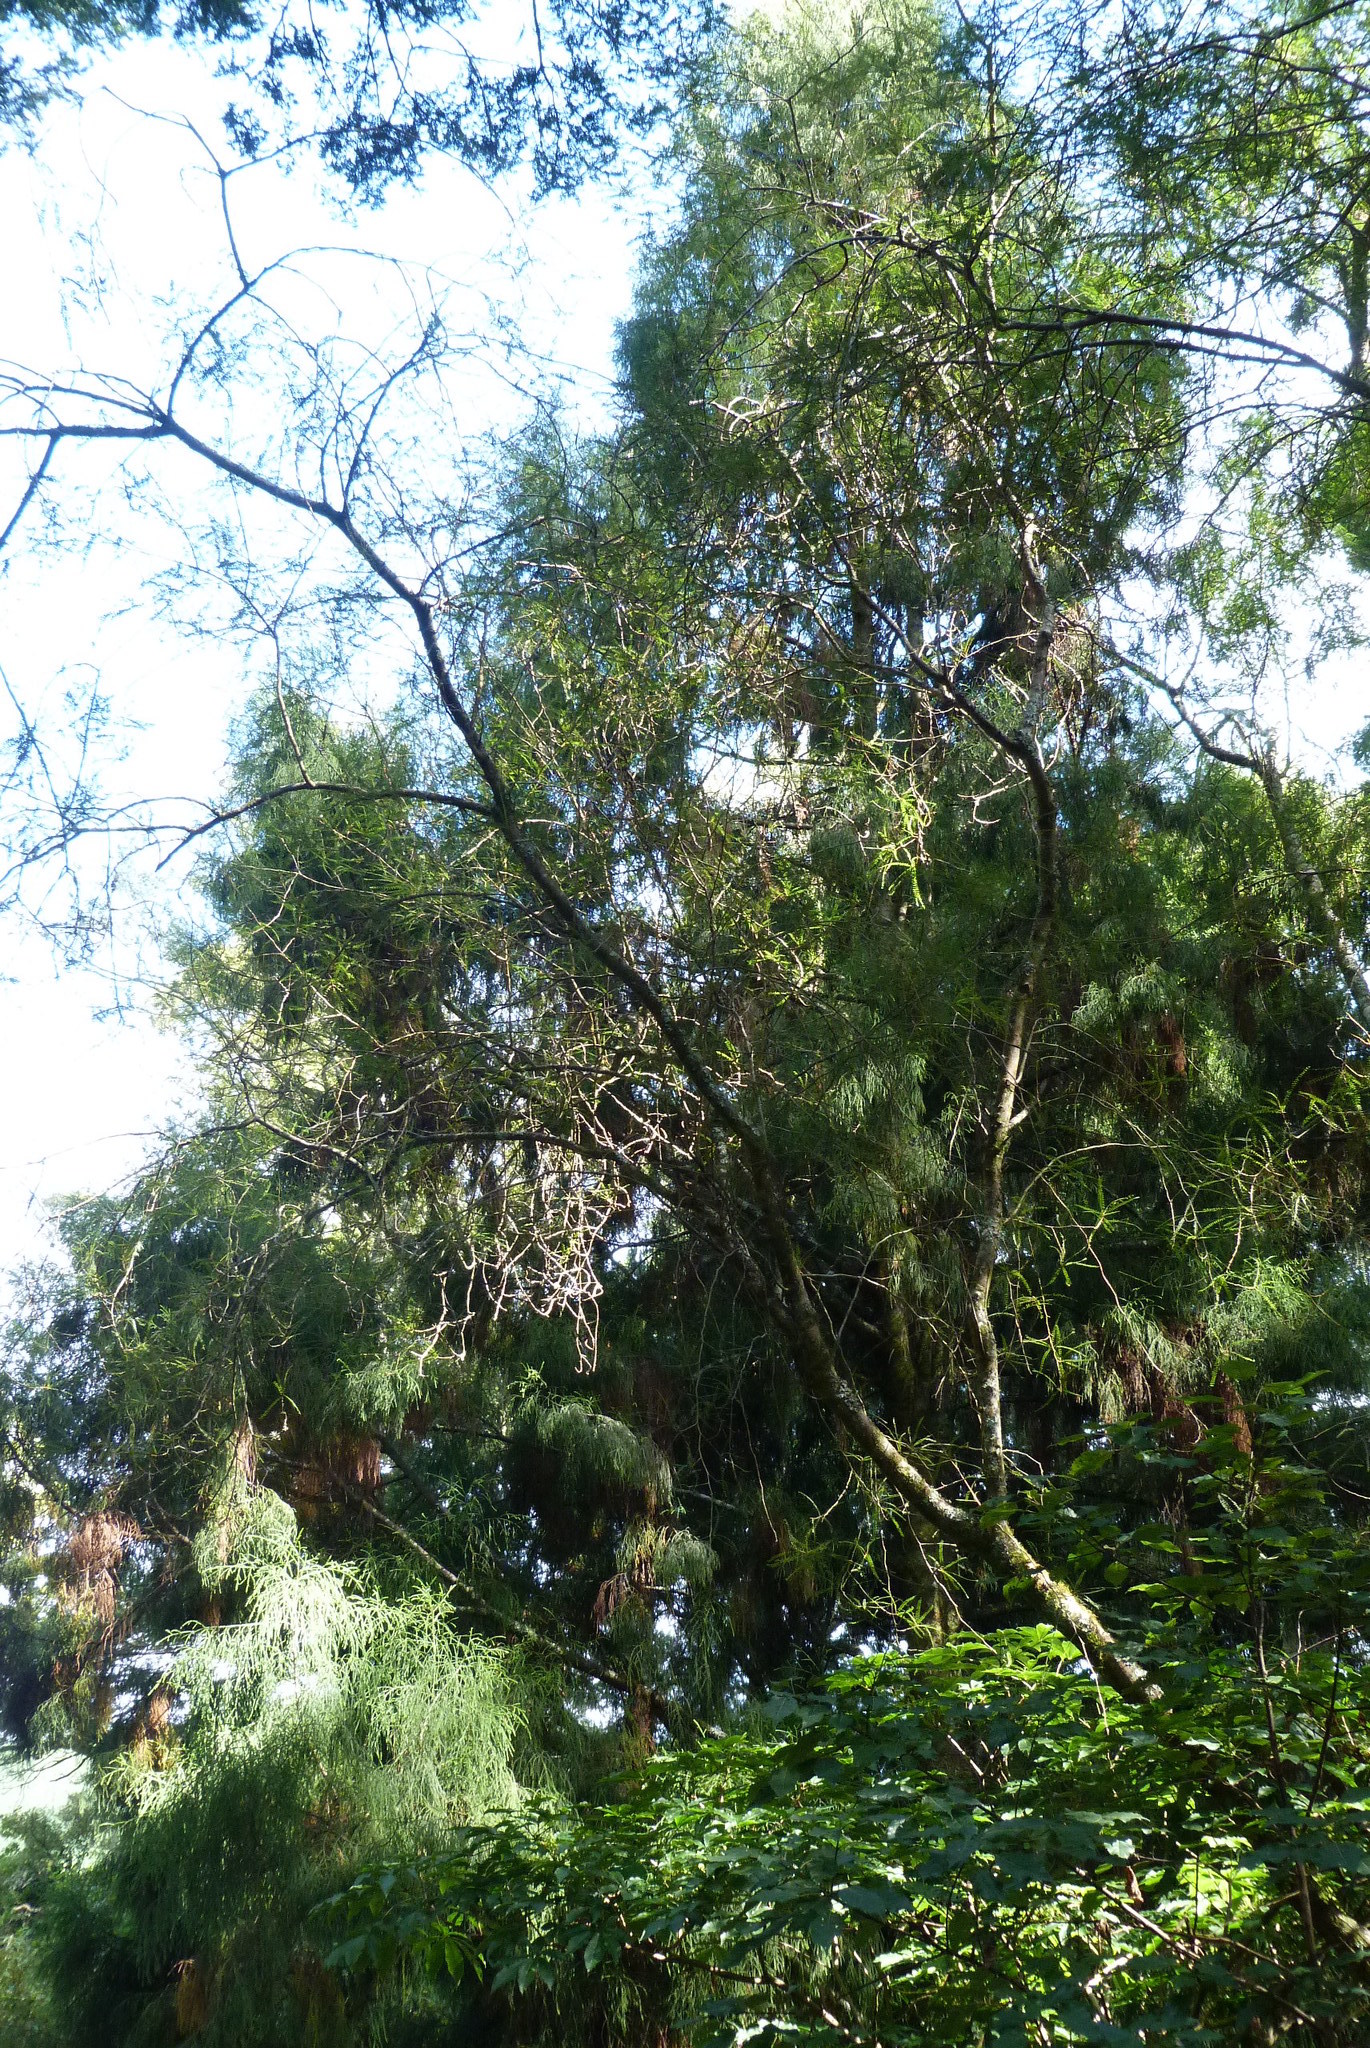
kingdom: Plantae
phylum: Tracheophyta
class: Pinopsida
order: Pinales
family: Podocarpaceae
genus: Dacrydium
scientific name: Dacrydium cupressinum
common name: Red pine
